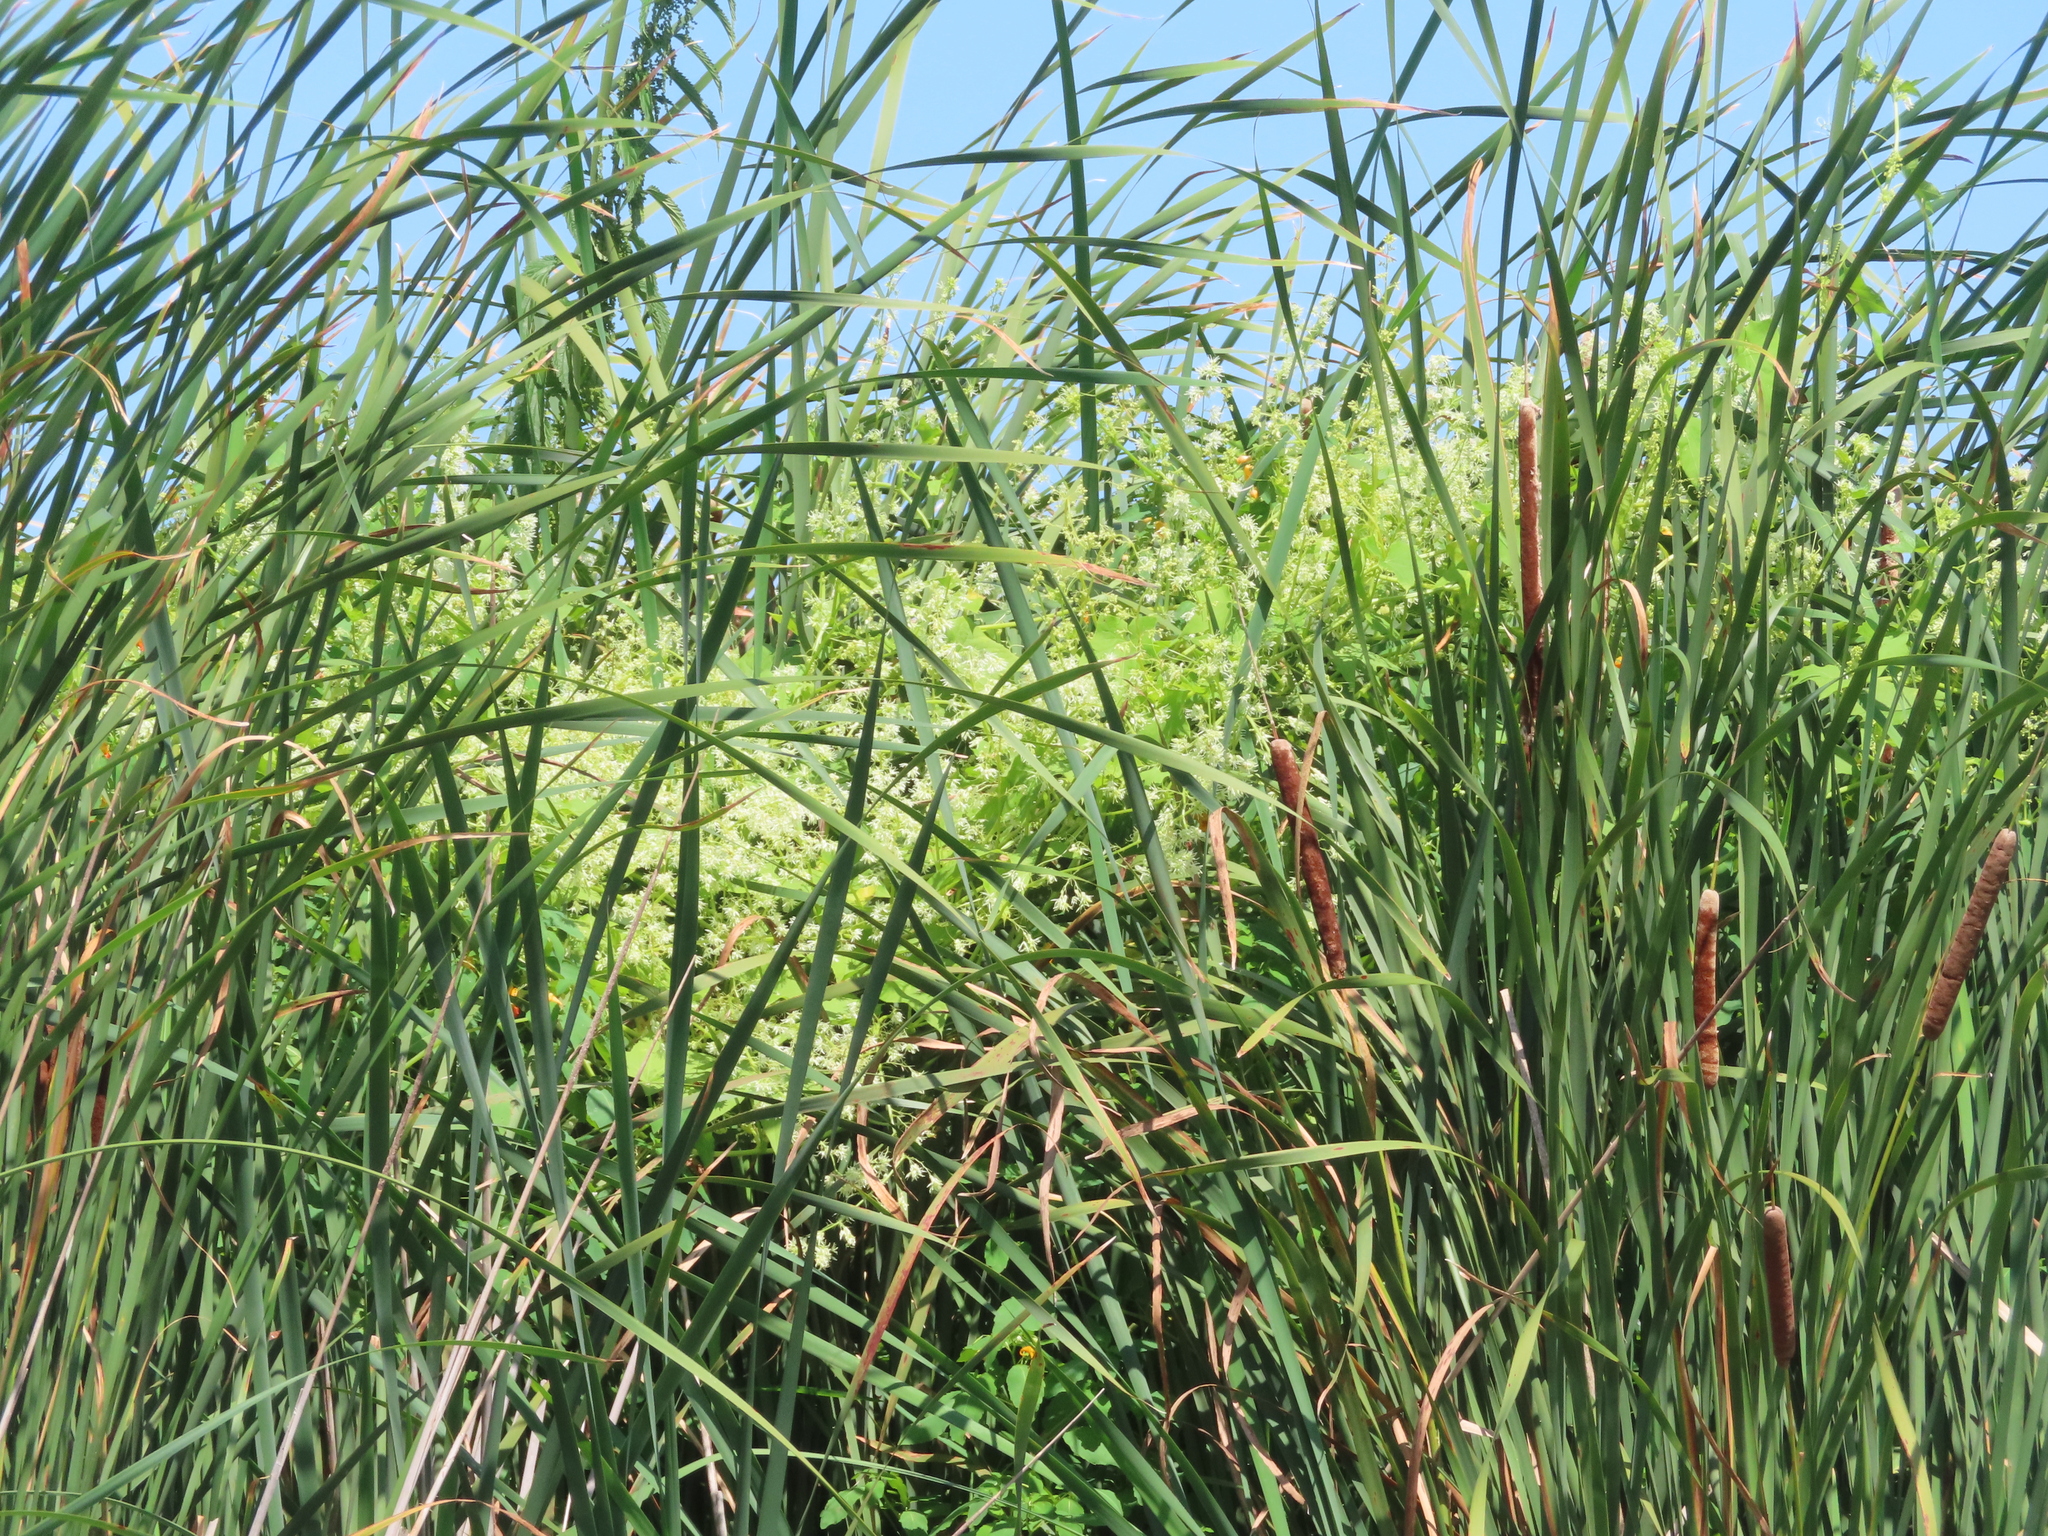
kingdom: Plantae
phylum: Tracheophyta
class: Magnoliopsida
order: Cucurbitales
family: Cucurbitaceae
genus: Echinocystis
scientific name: Echinocystis lobata
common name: Wild cucumber
